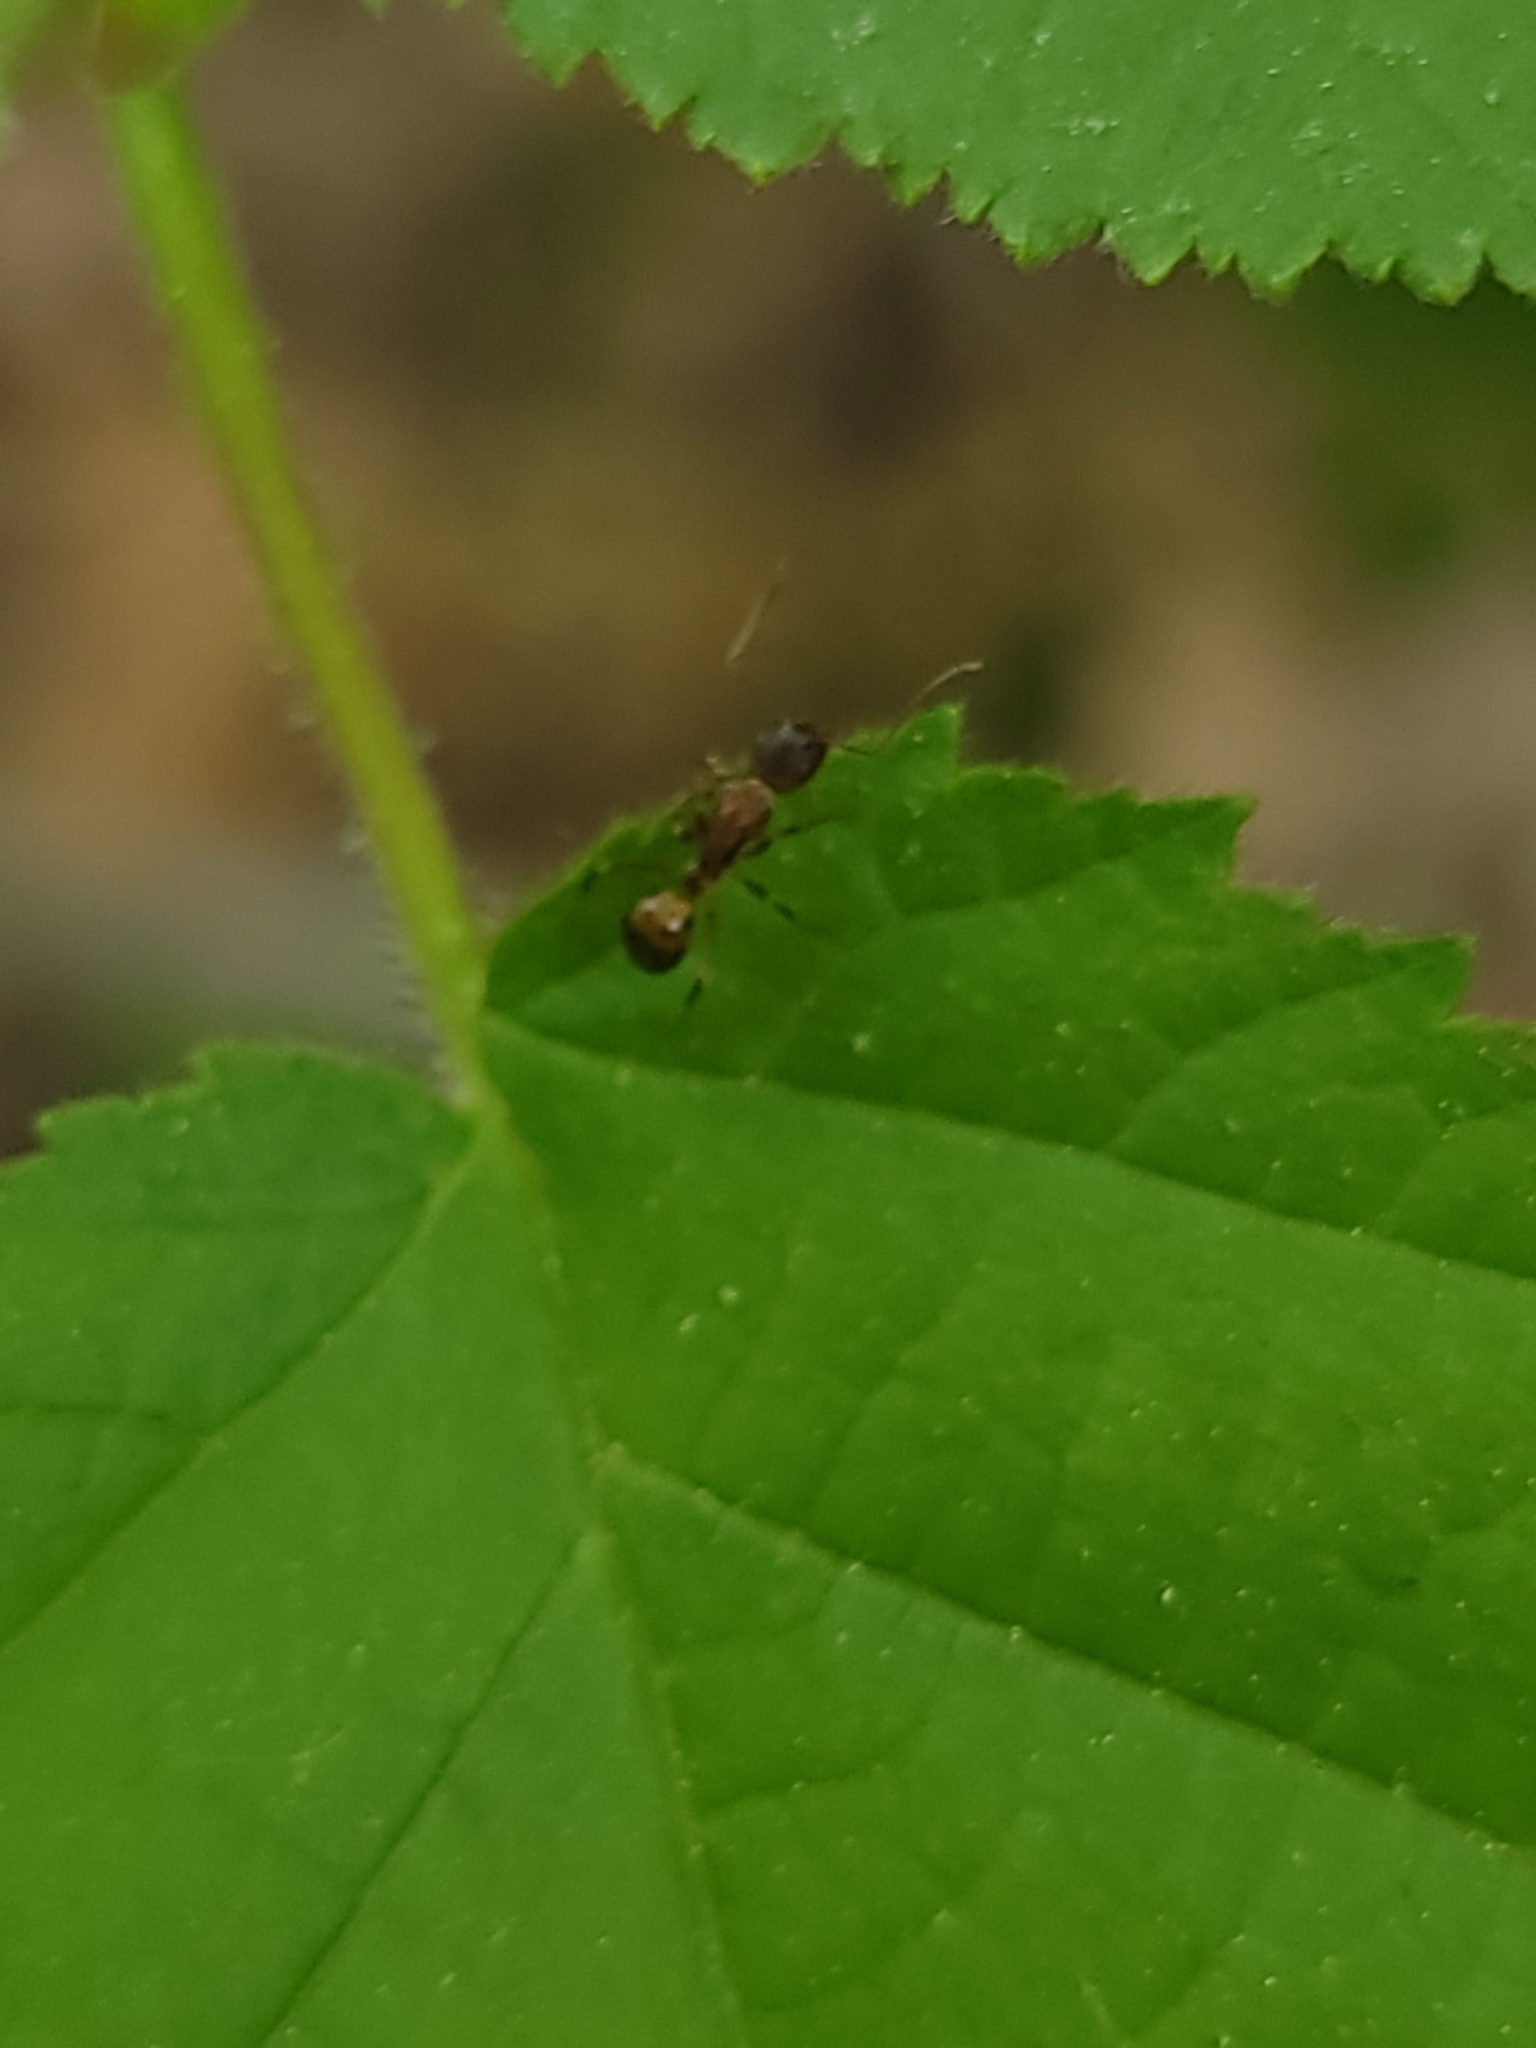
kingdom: Animalia
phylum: Arthropoda
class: Insecta
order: Hymenoptera
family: Formicidae
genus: Camponotus
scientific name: Camponotus subbarbatus
